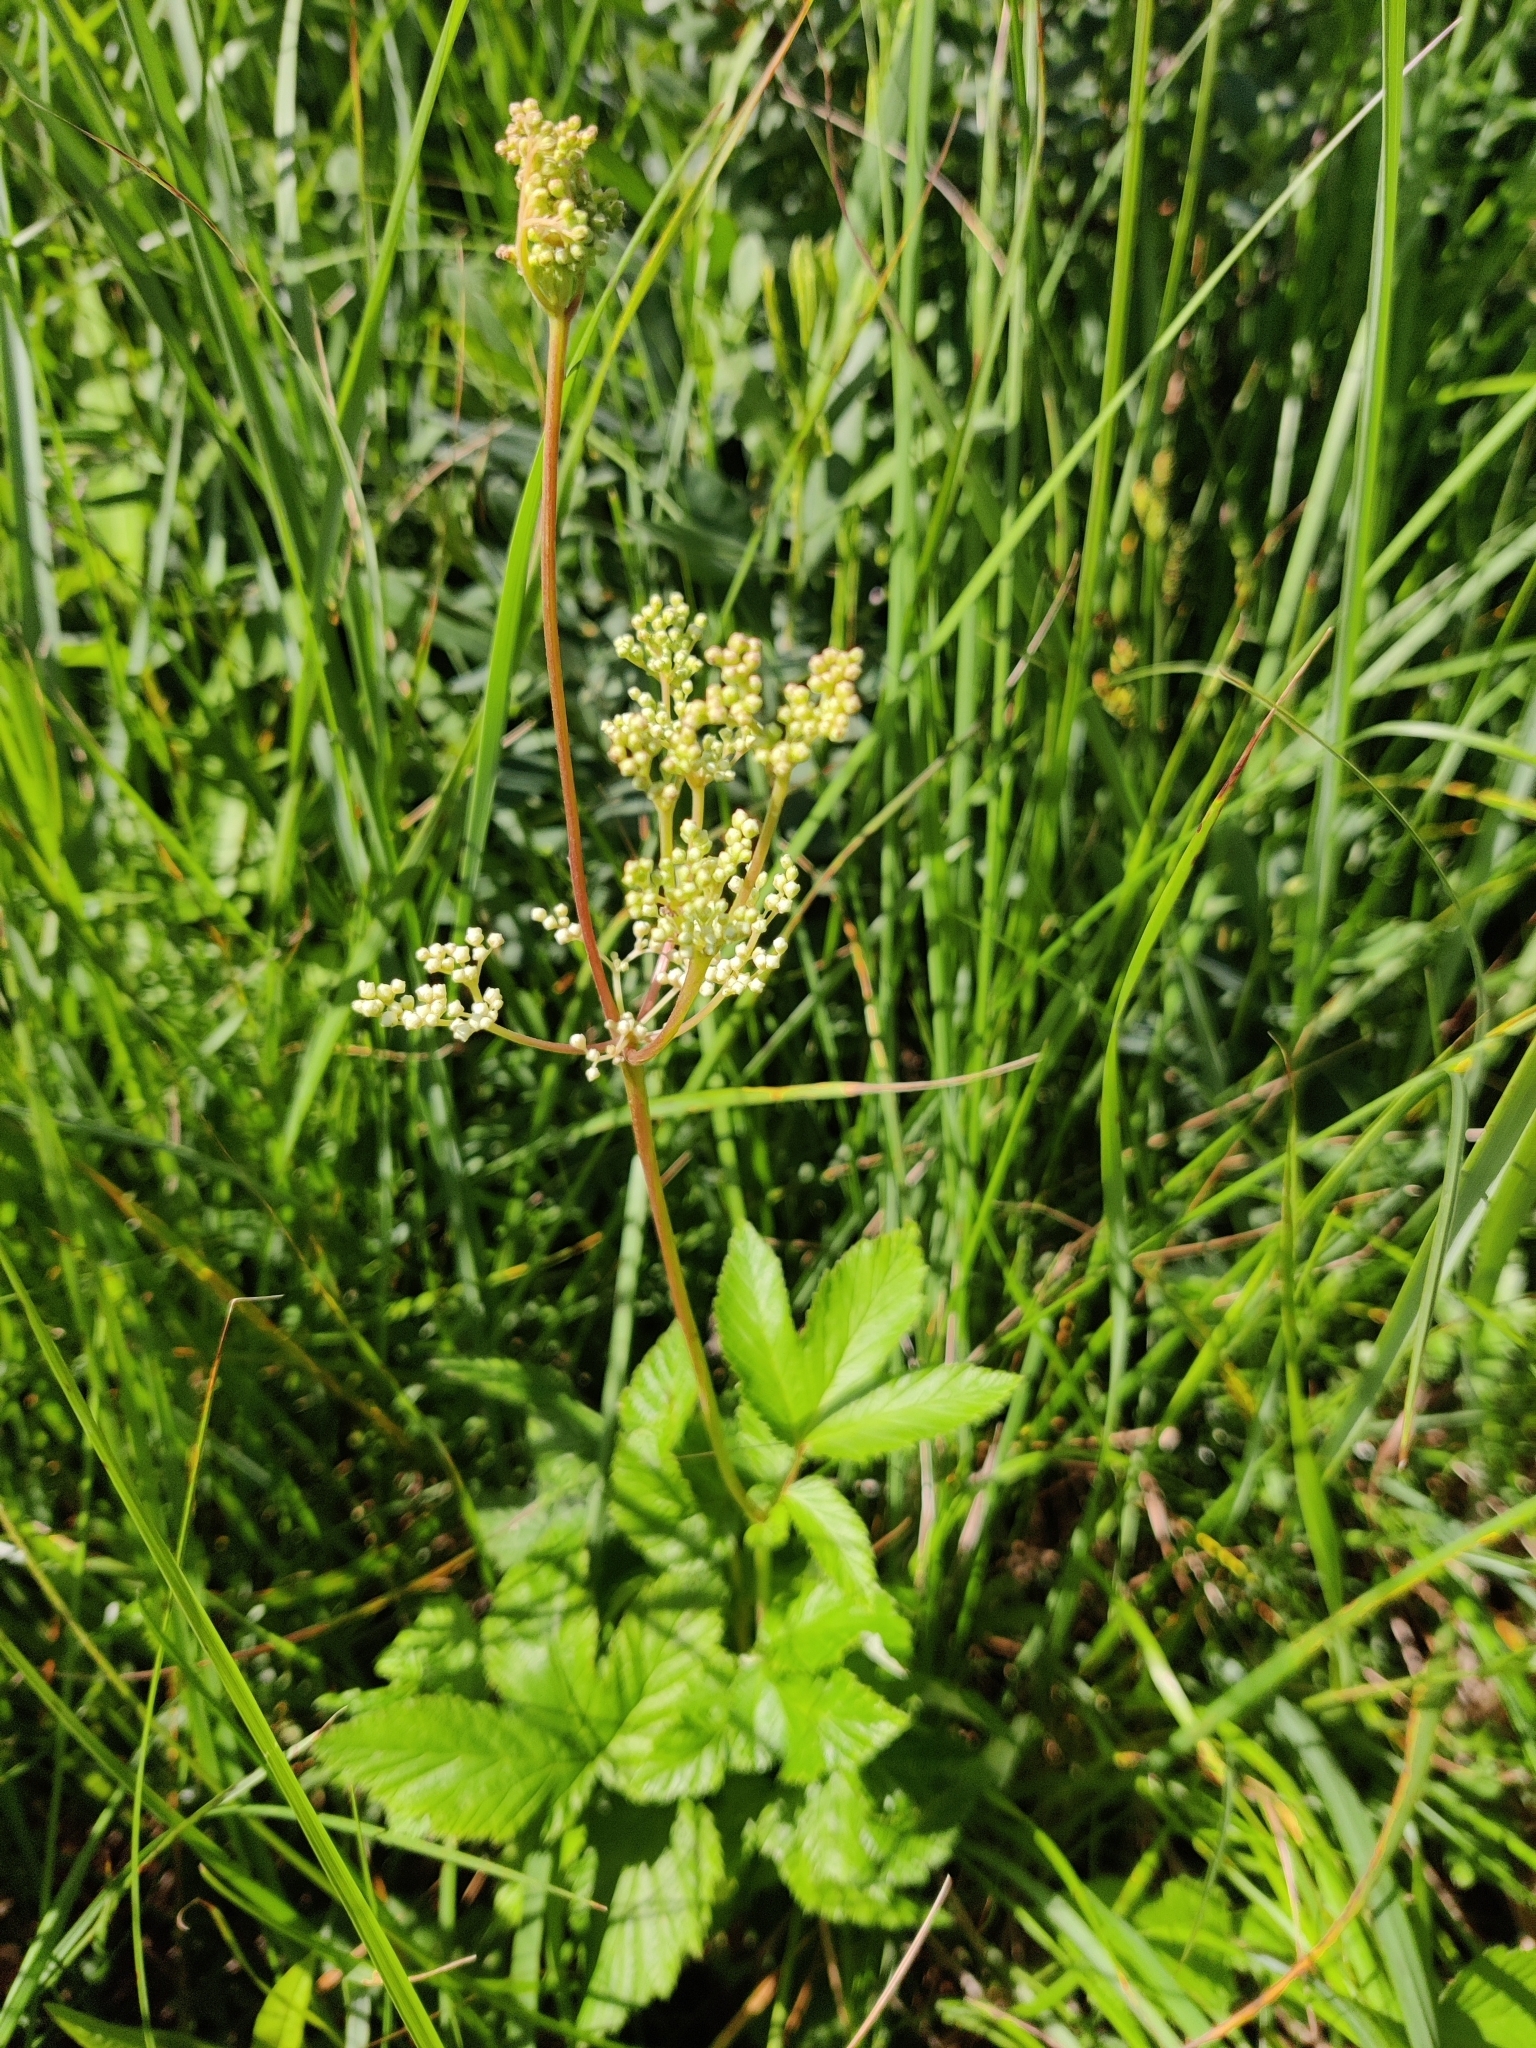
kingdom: Plantae
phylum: Tracheophyta
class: Magnoliopsida
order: Rosales
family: Rosaceae
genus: Filipendula
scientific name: Filipendula ulmaria
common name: Meadowsweet
